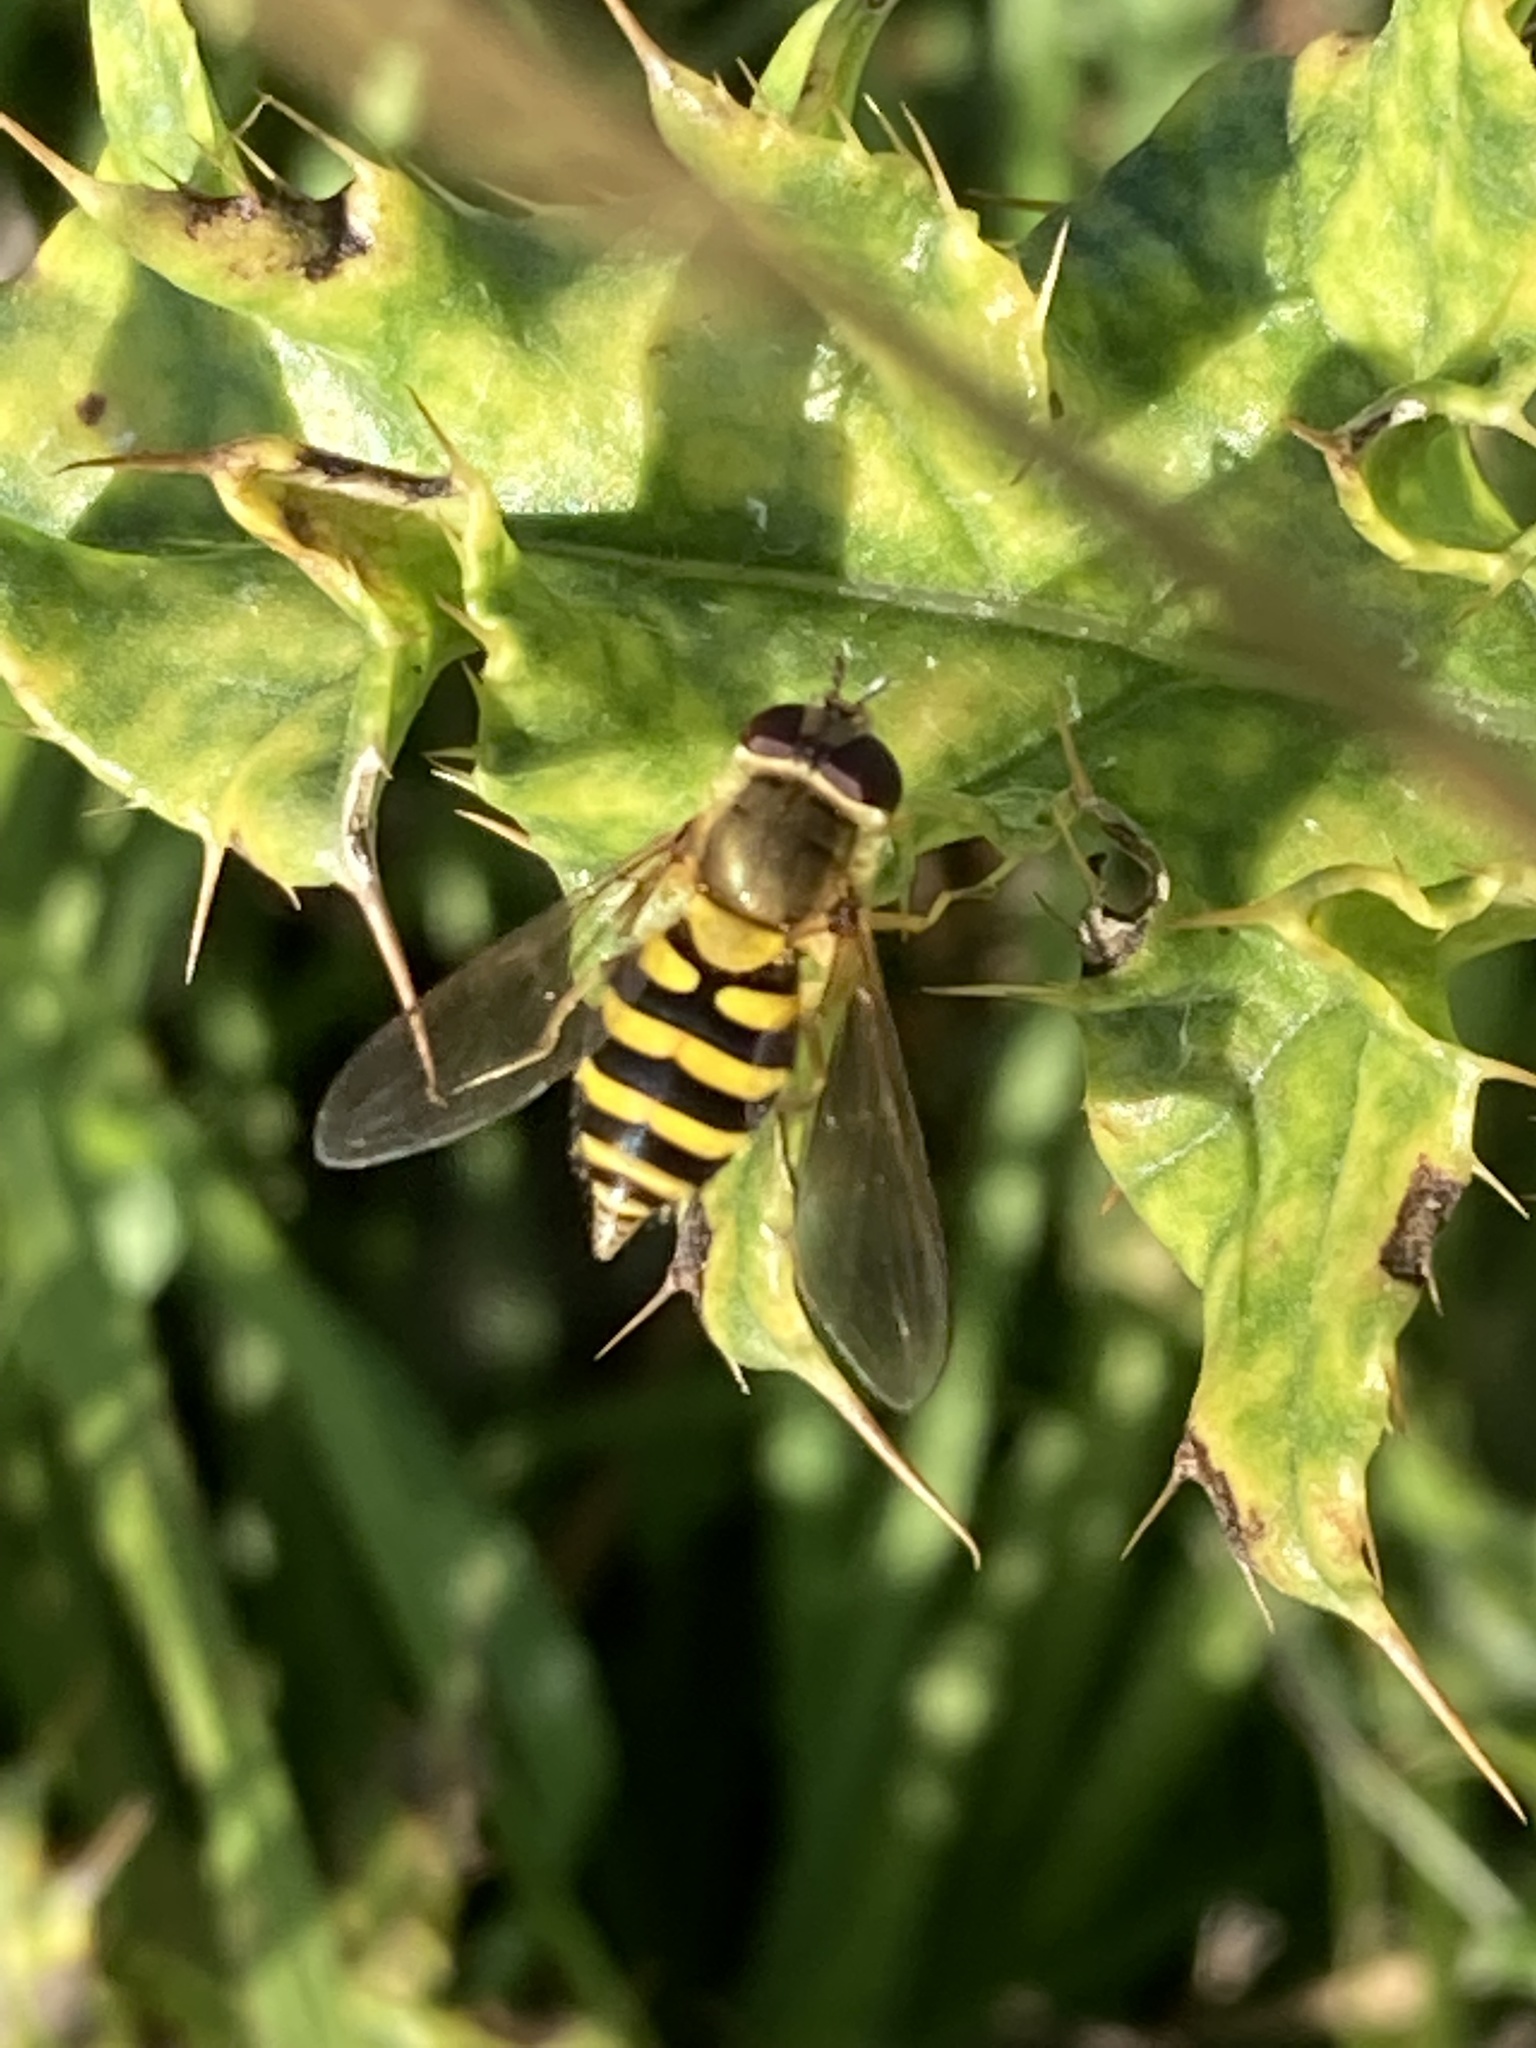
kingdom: Animalia
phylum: Arthropoda
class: Insecta
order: Diptera
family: Syrphidae
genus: Syrphus
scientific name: Syrphus ribesii
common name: Common flower fly
